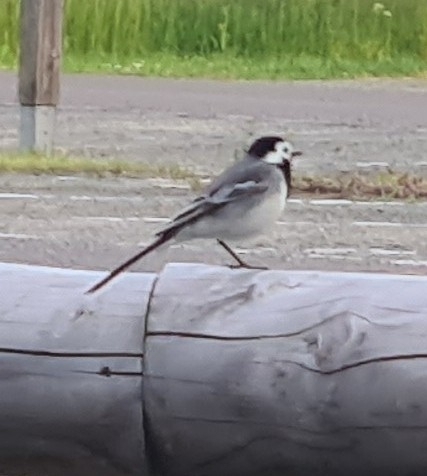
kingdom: Animalia
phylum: Chordata
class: Aves
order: Passeriformes
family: Motacillidae
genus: Motacilla
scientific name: Motacilla alba
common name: White wagtail
